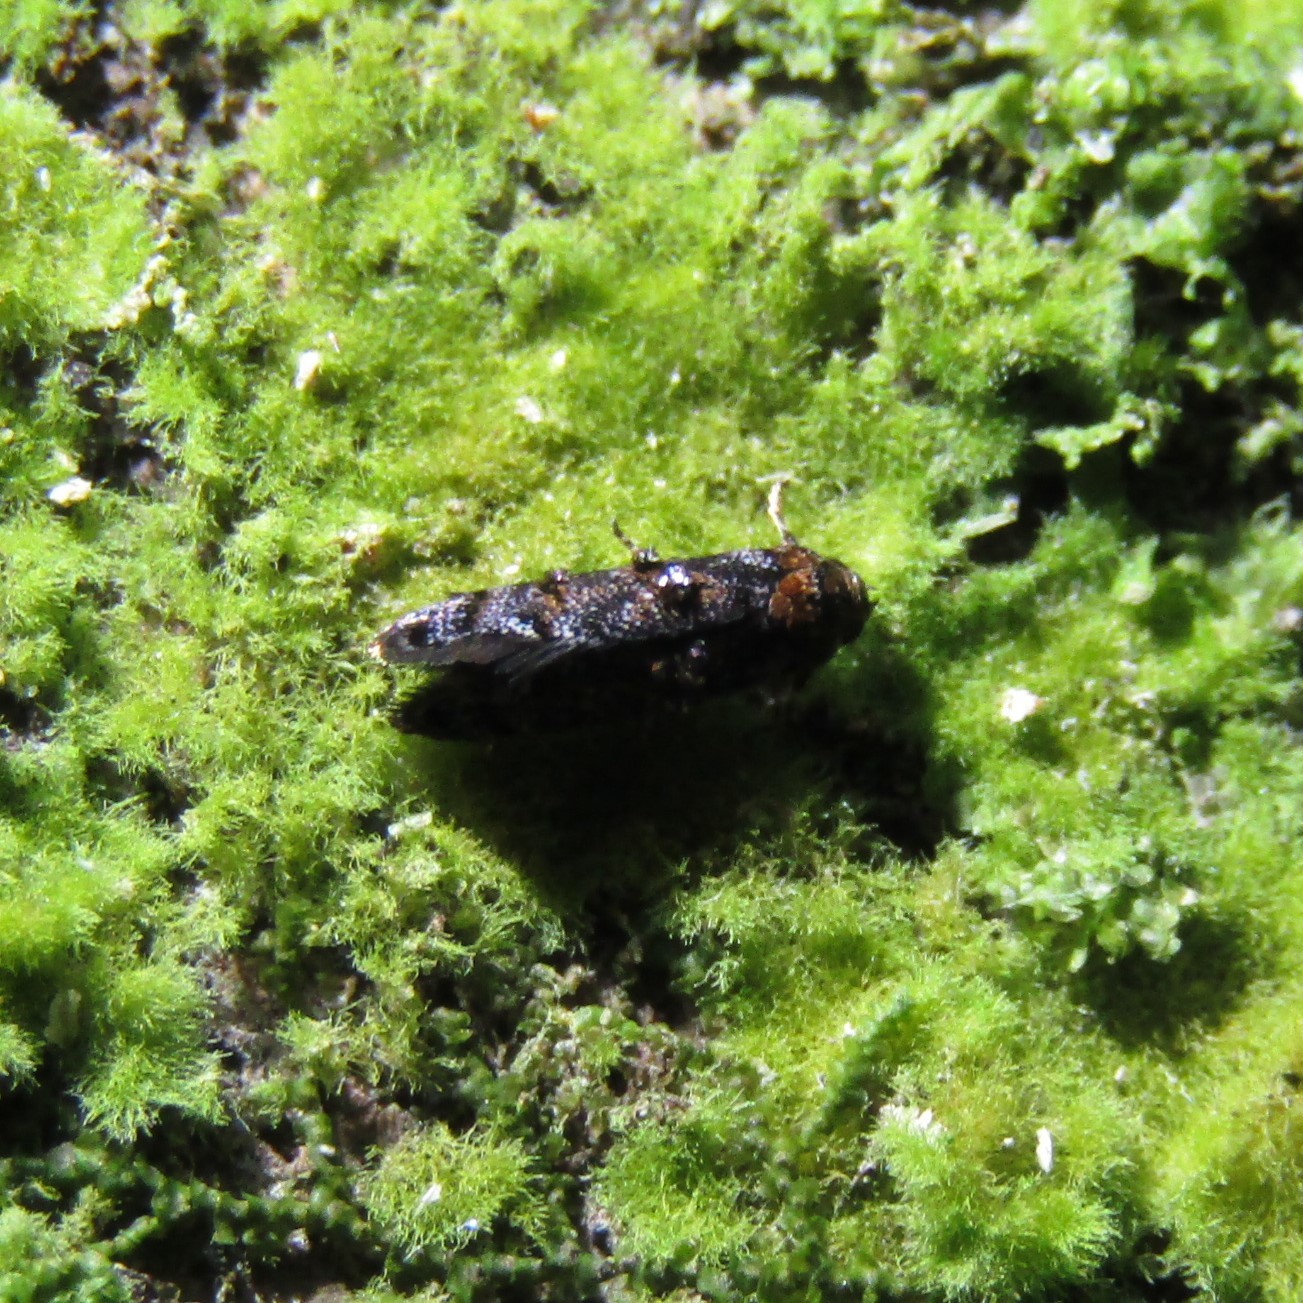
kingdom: Animalia
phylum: Arthropoda
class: Insecta
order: Lepidoptera
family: Oecophoridae
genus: Corocosma
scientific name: Corocosma memorabilis
